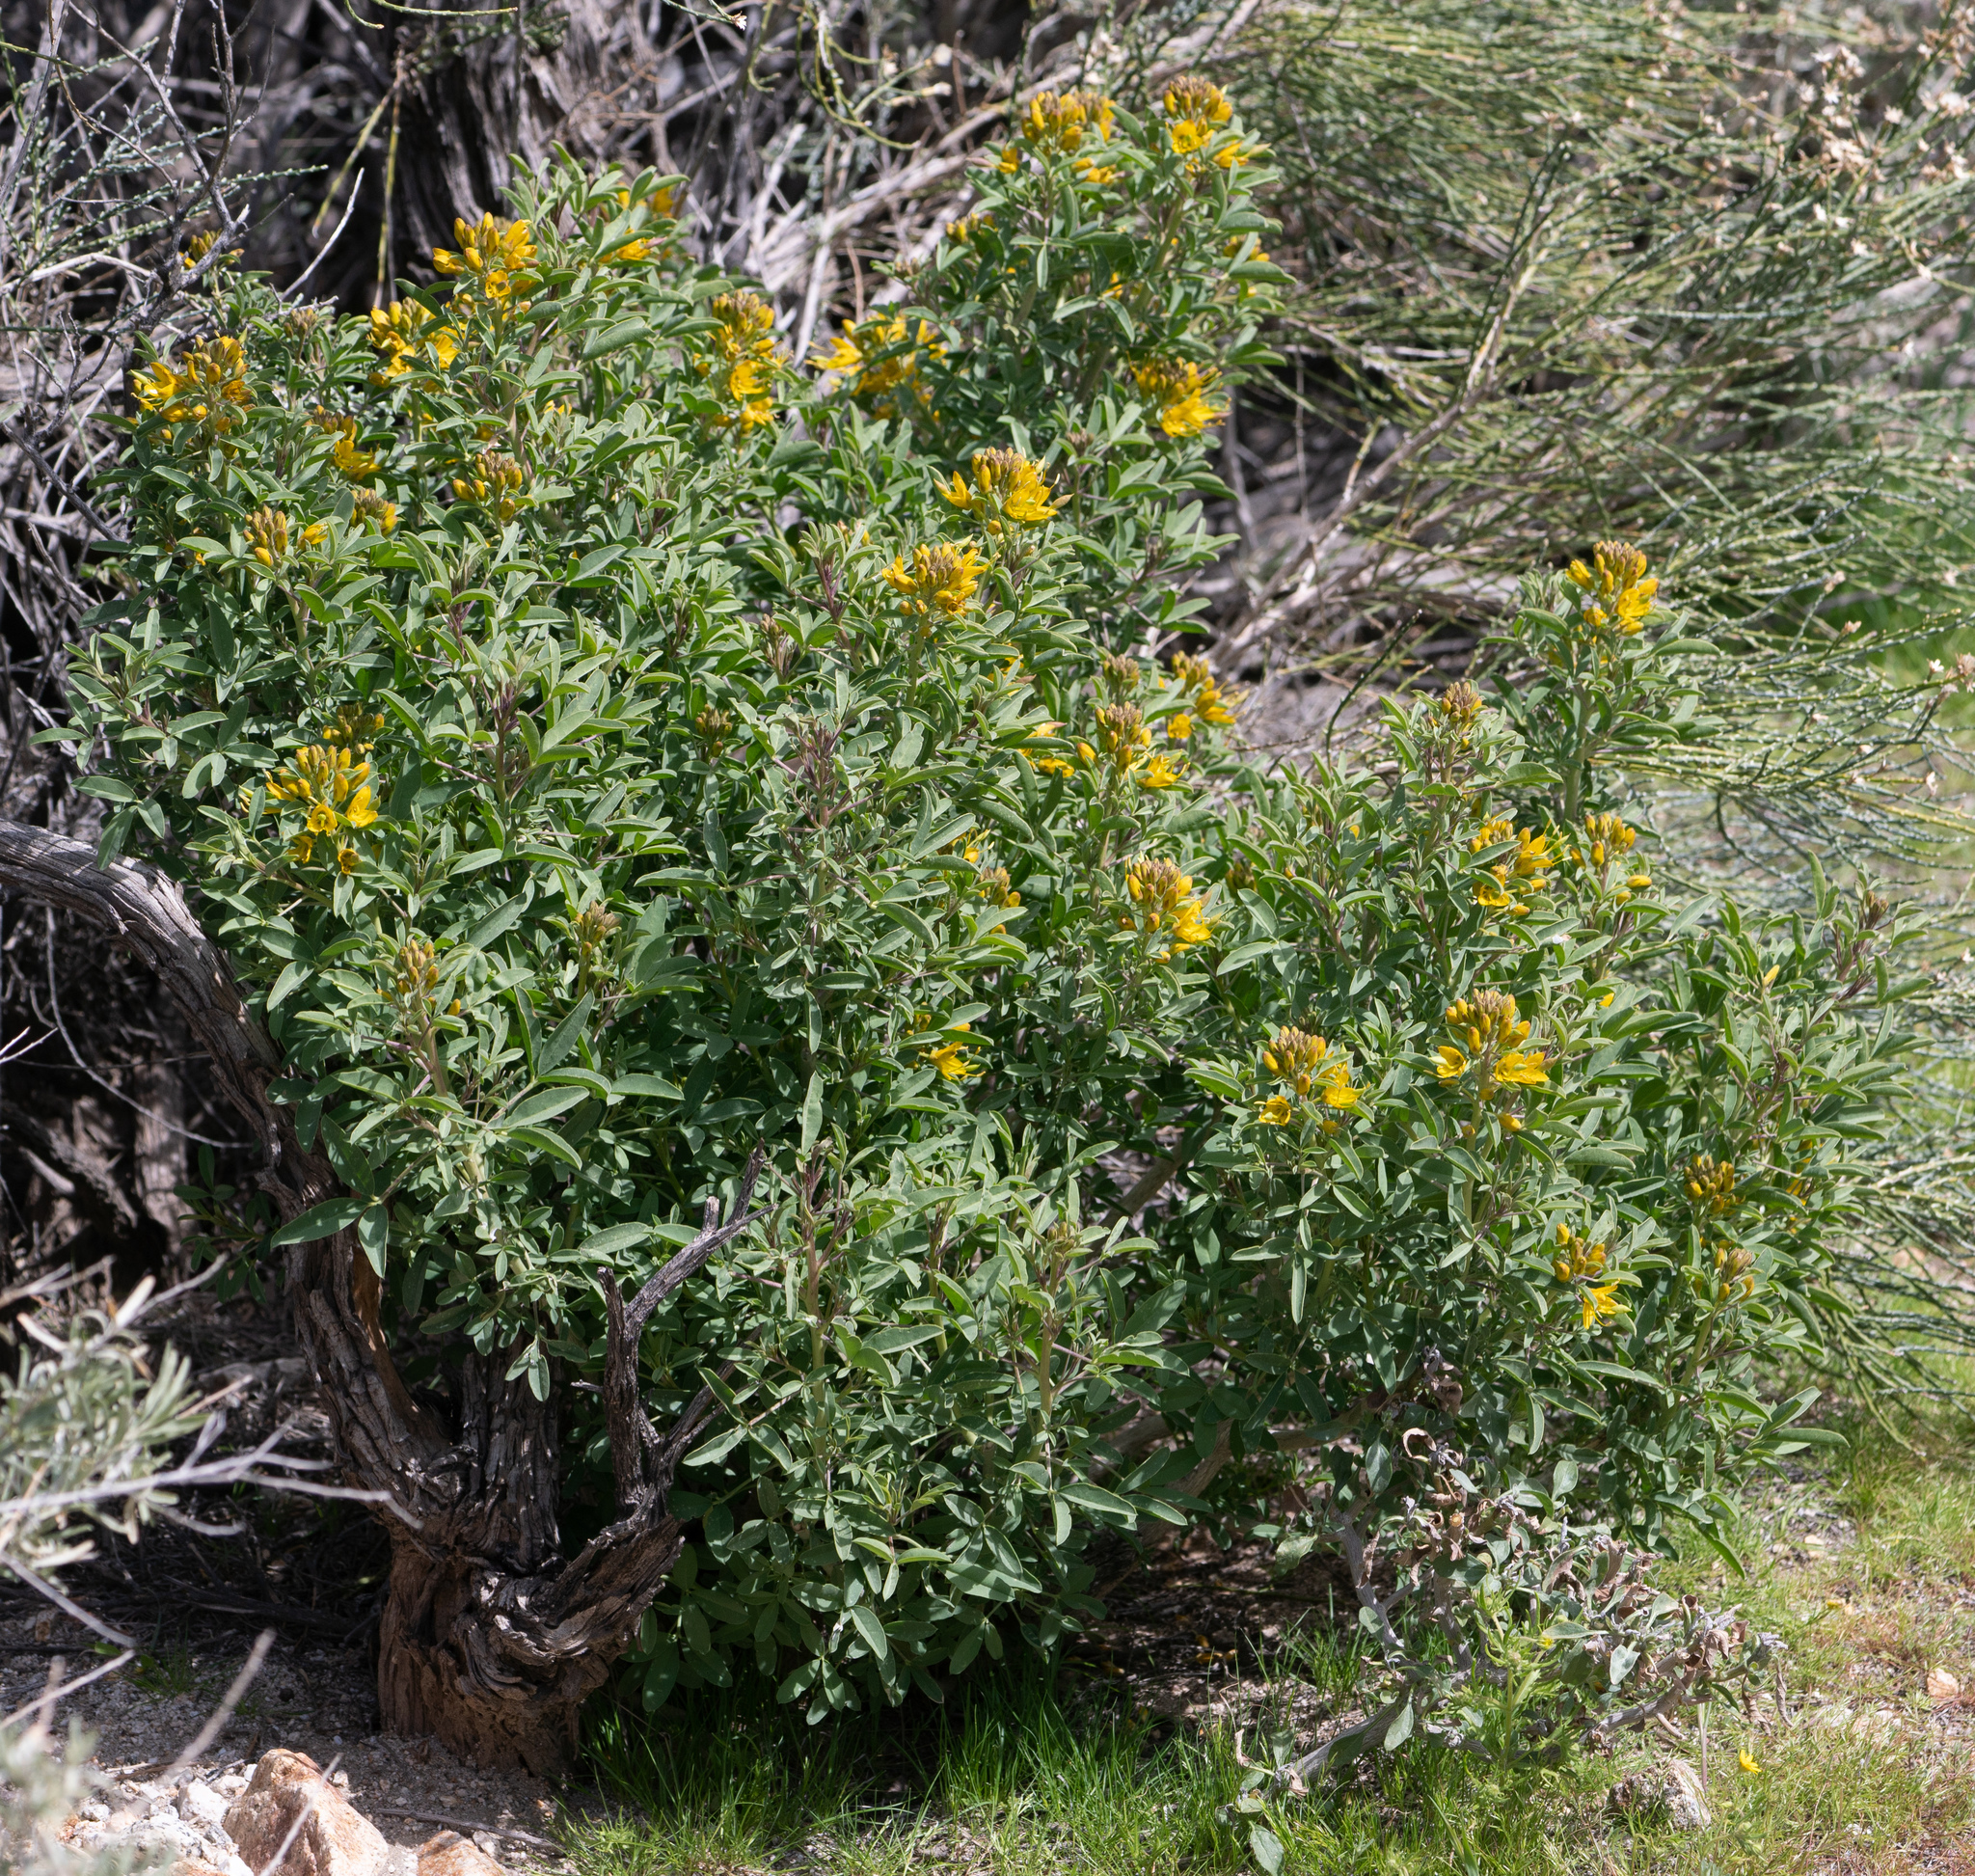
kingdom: Plantae
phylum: Tracheophyta
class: Magnoliopsida
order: Brassicales
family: Cleomaceae
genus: Cleomella
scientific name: Cleomella arborea
